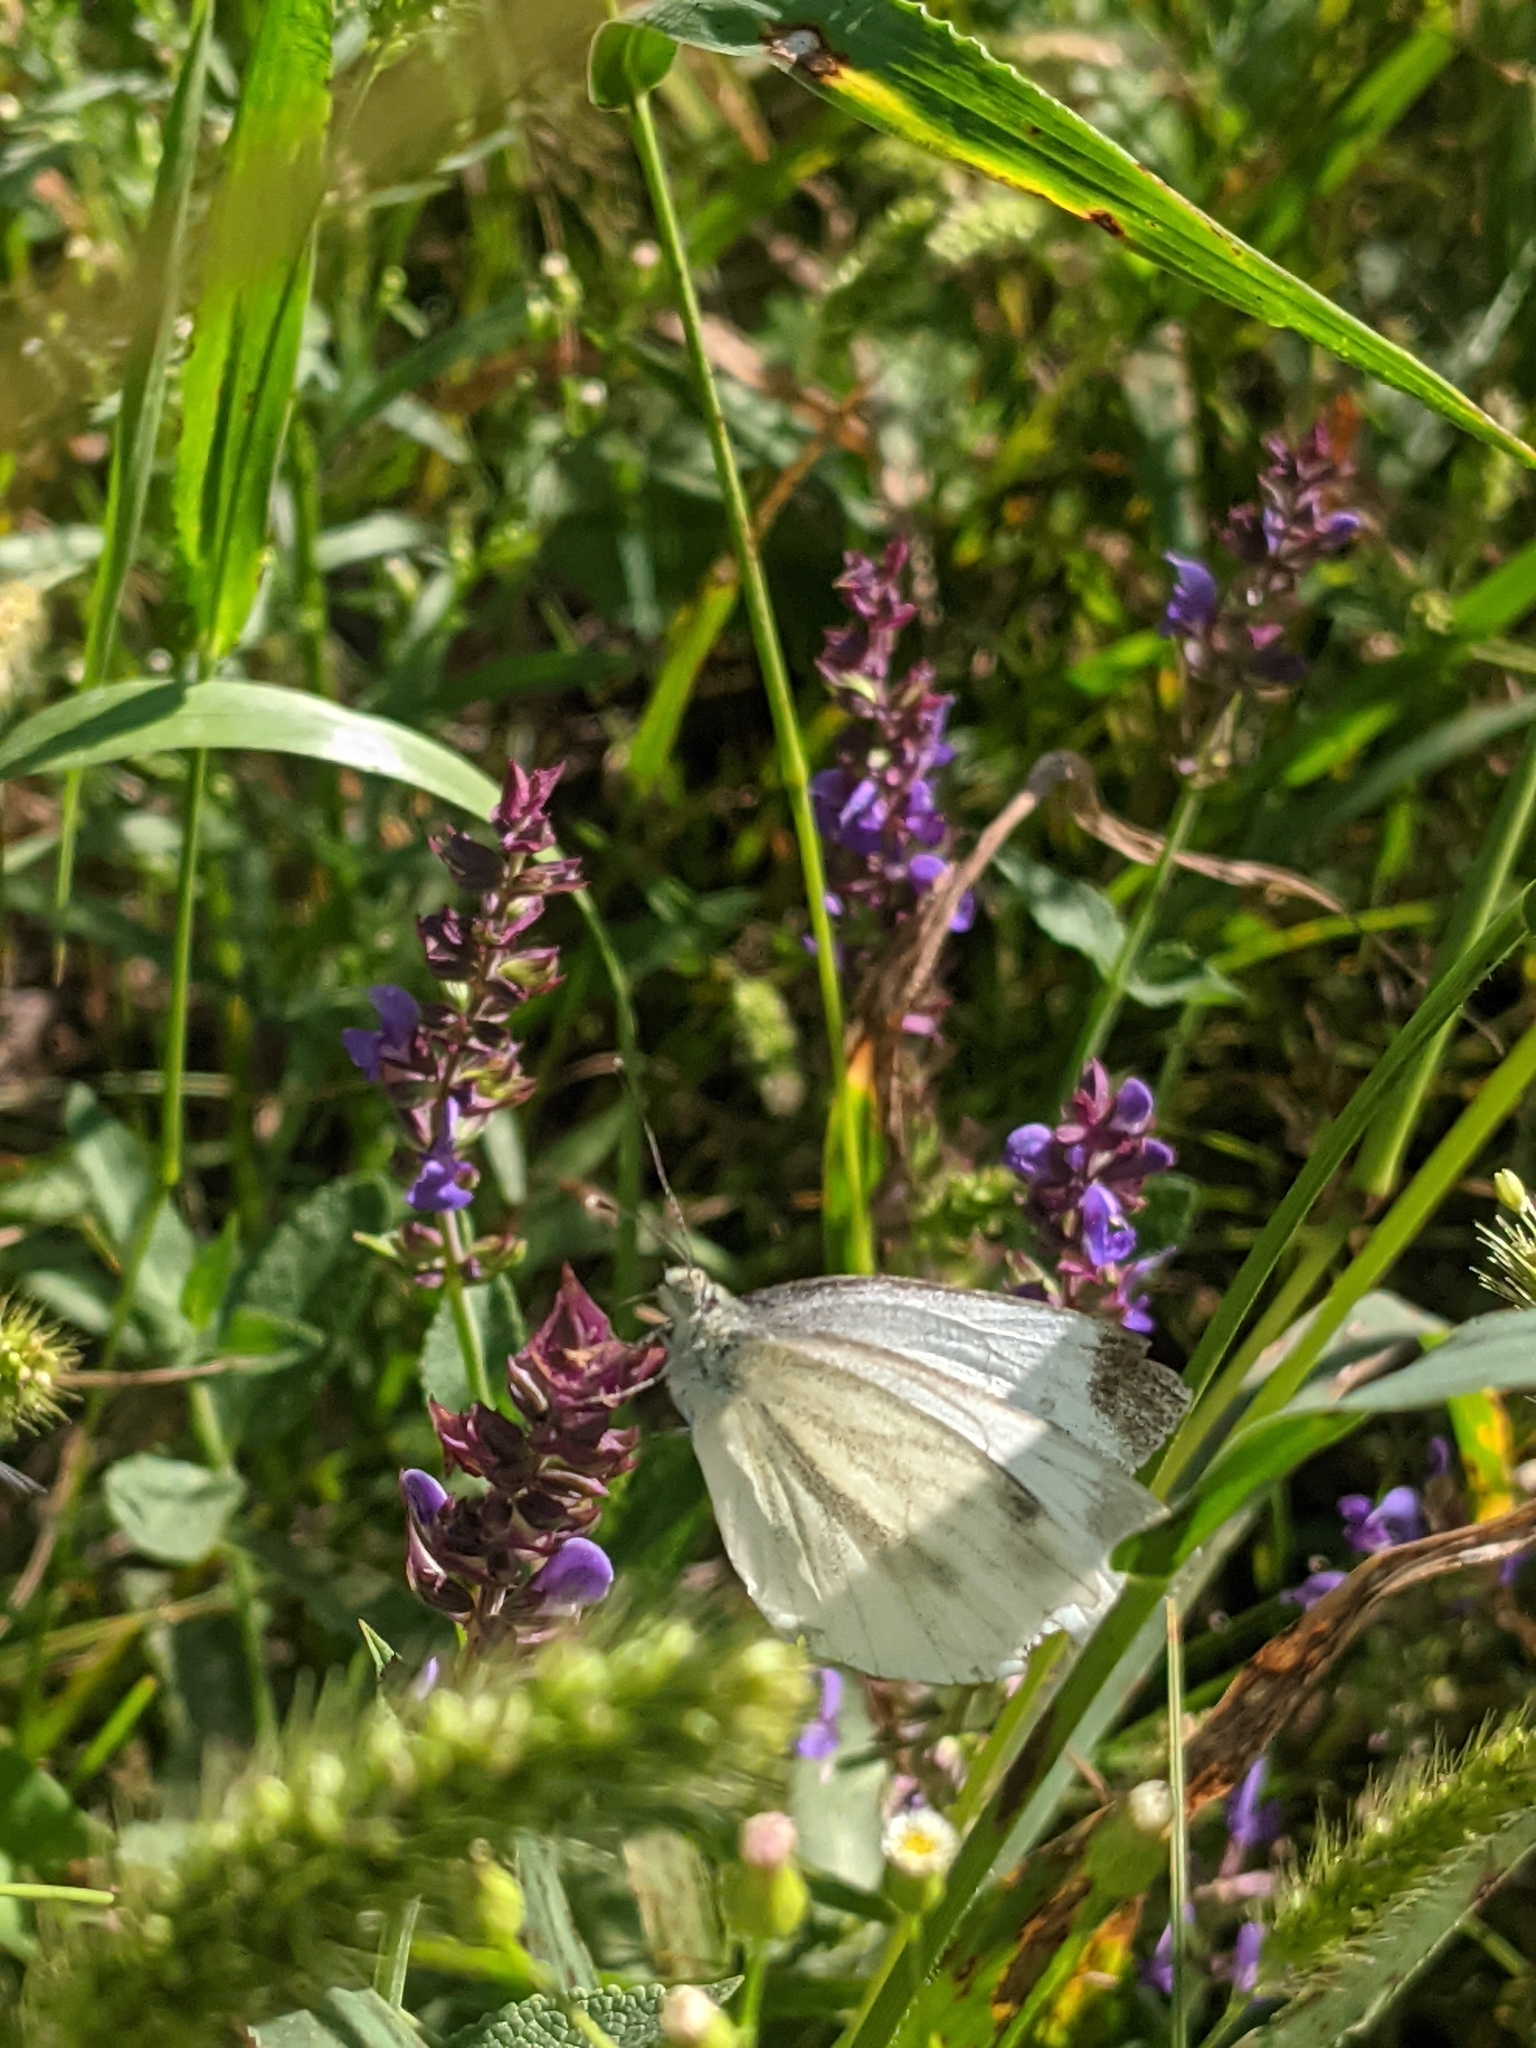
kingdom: Animalia
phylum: Arthropoda
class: Insecta
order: Lepidoptera
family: Pieridae
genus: Pieris
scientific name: Pieris napi
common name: Green-veined white
